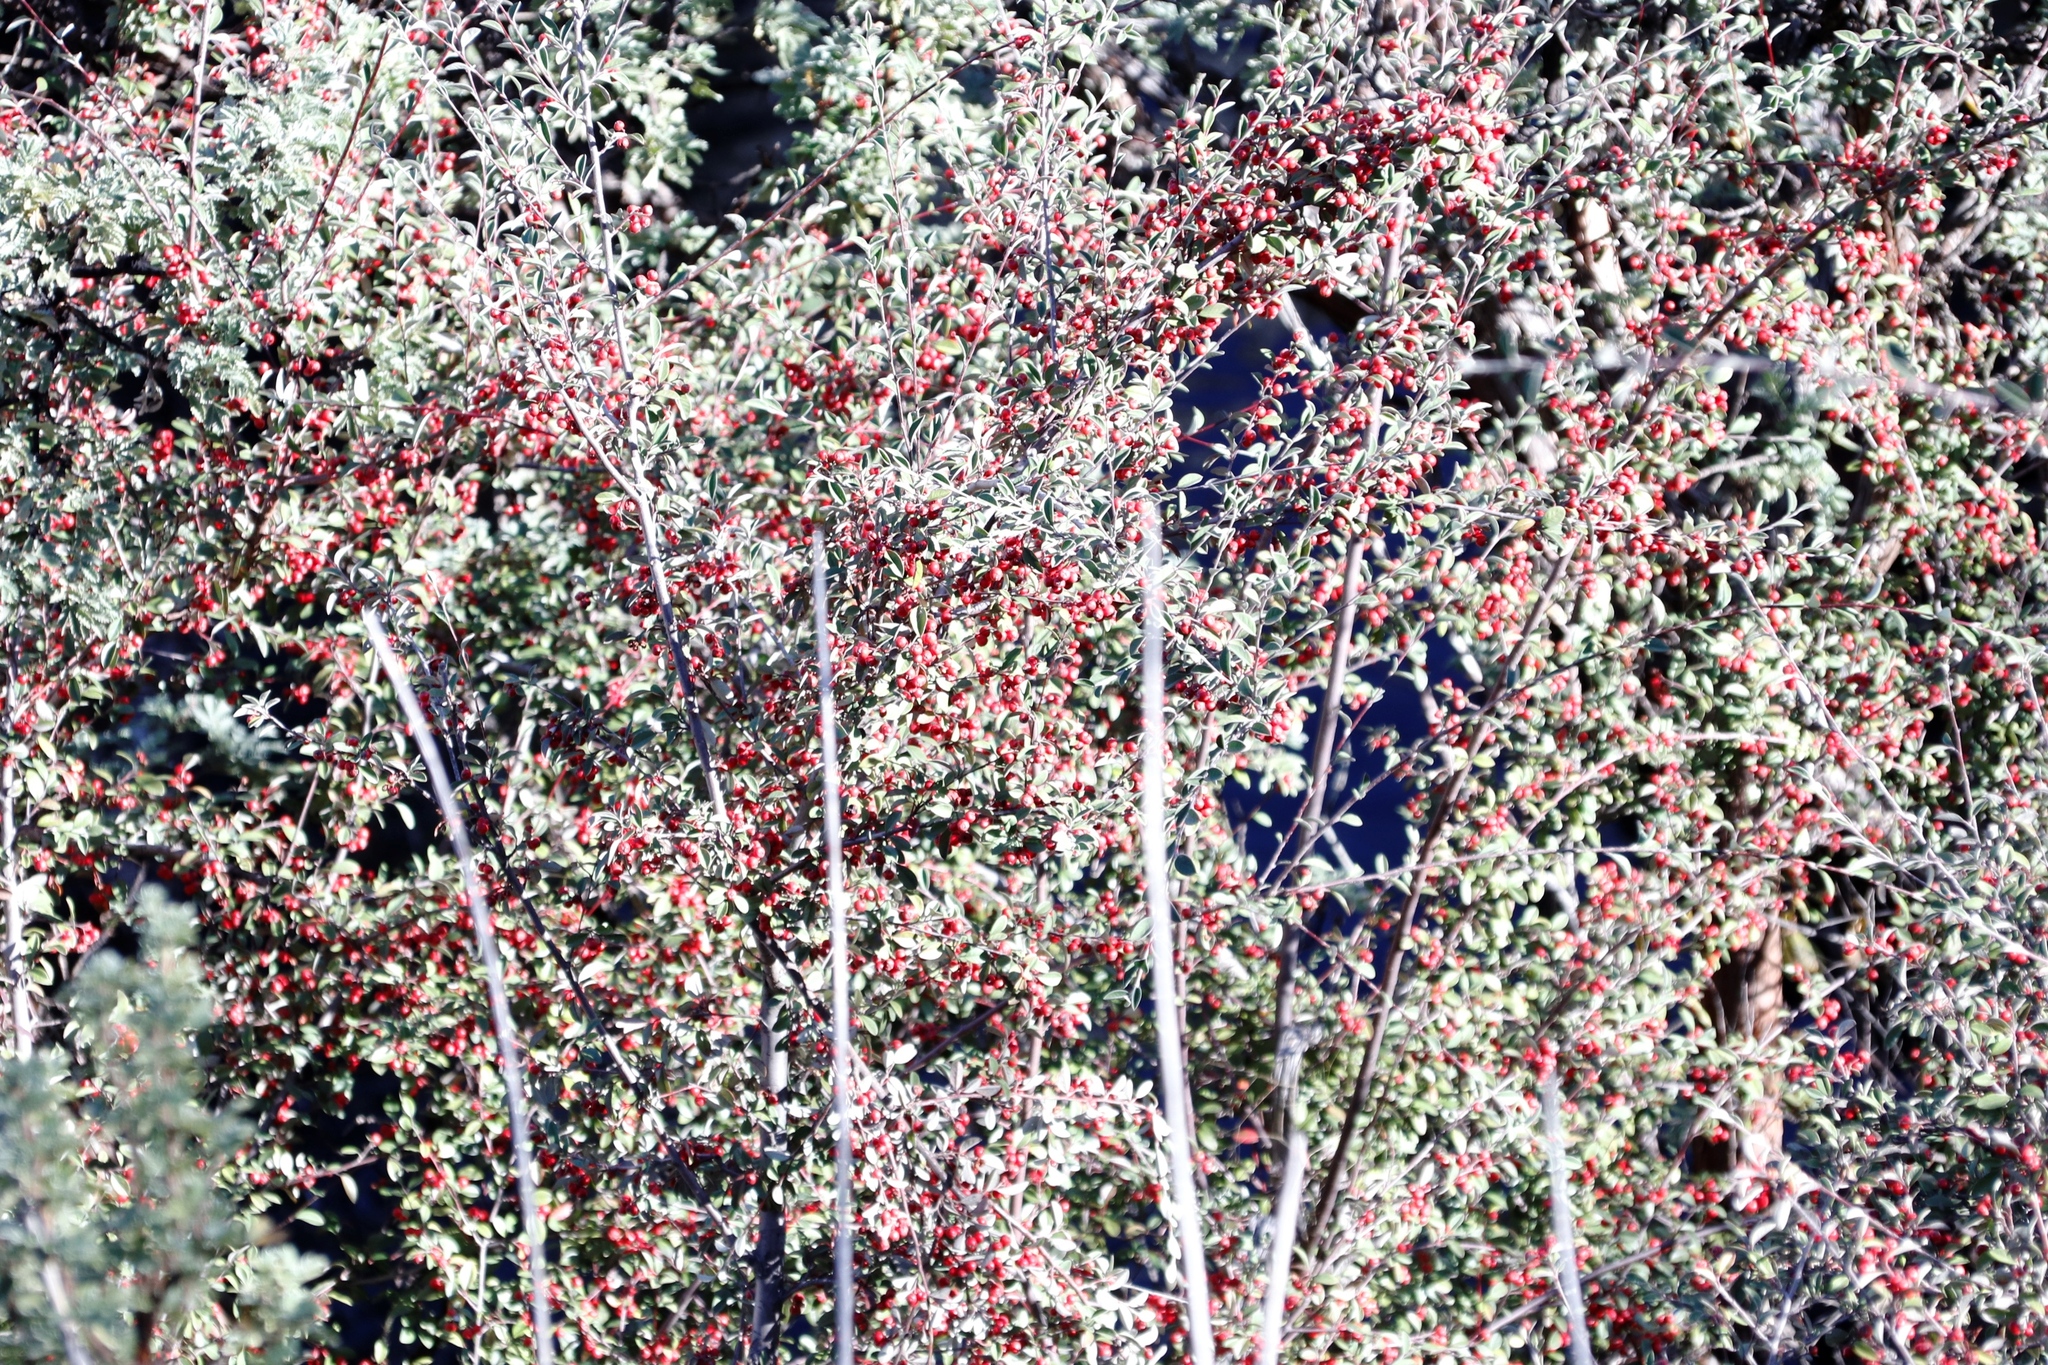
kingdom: Plantae
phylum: Tracheophyta
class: Magnoliopsida
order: Rosales
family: Rosaceae
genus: Cotoneaster
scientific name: Cotoneaster pannosus
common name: Silverleaf cotoneaster
